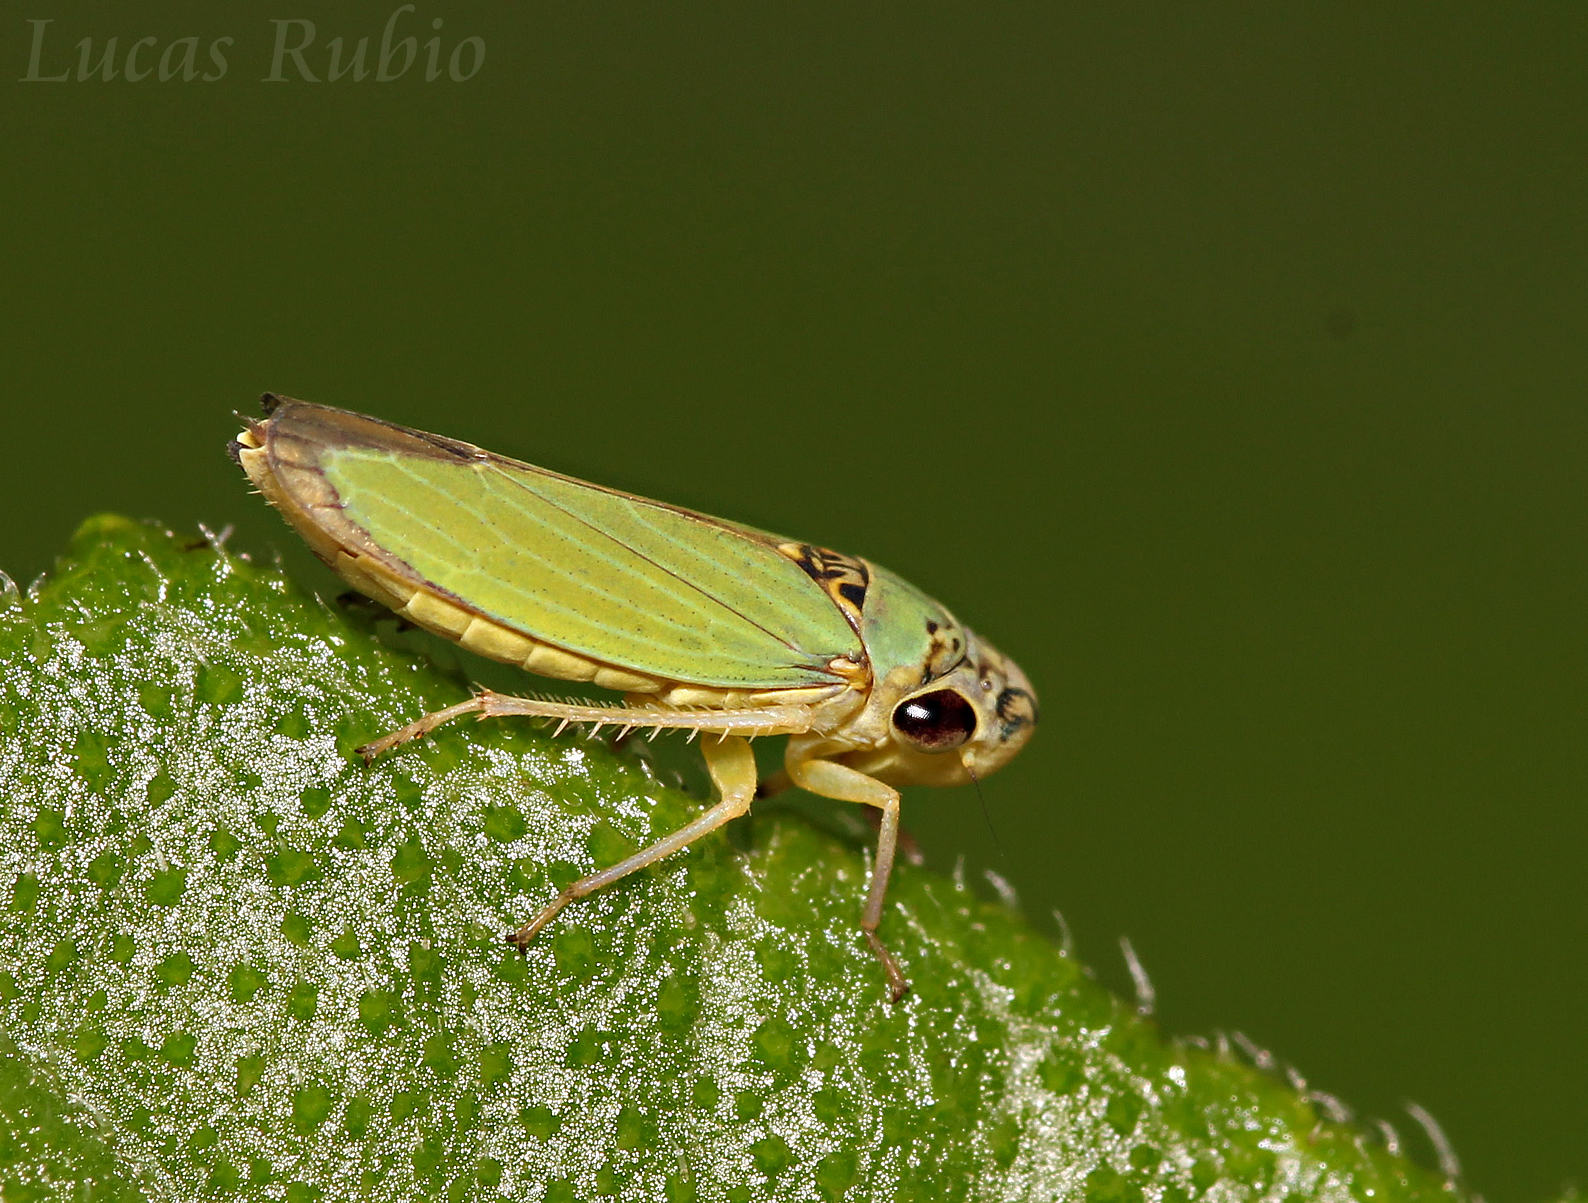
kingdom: Animalia
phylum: Arthropoda
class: Insecta
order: Hemiptera
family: Cicadellidae
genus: Bucephalogonia
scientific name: Bucephalogonia xanthophis
